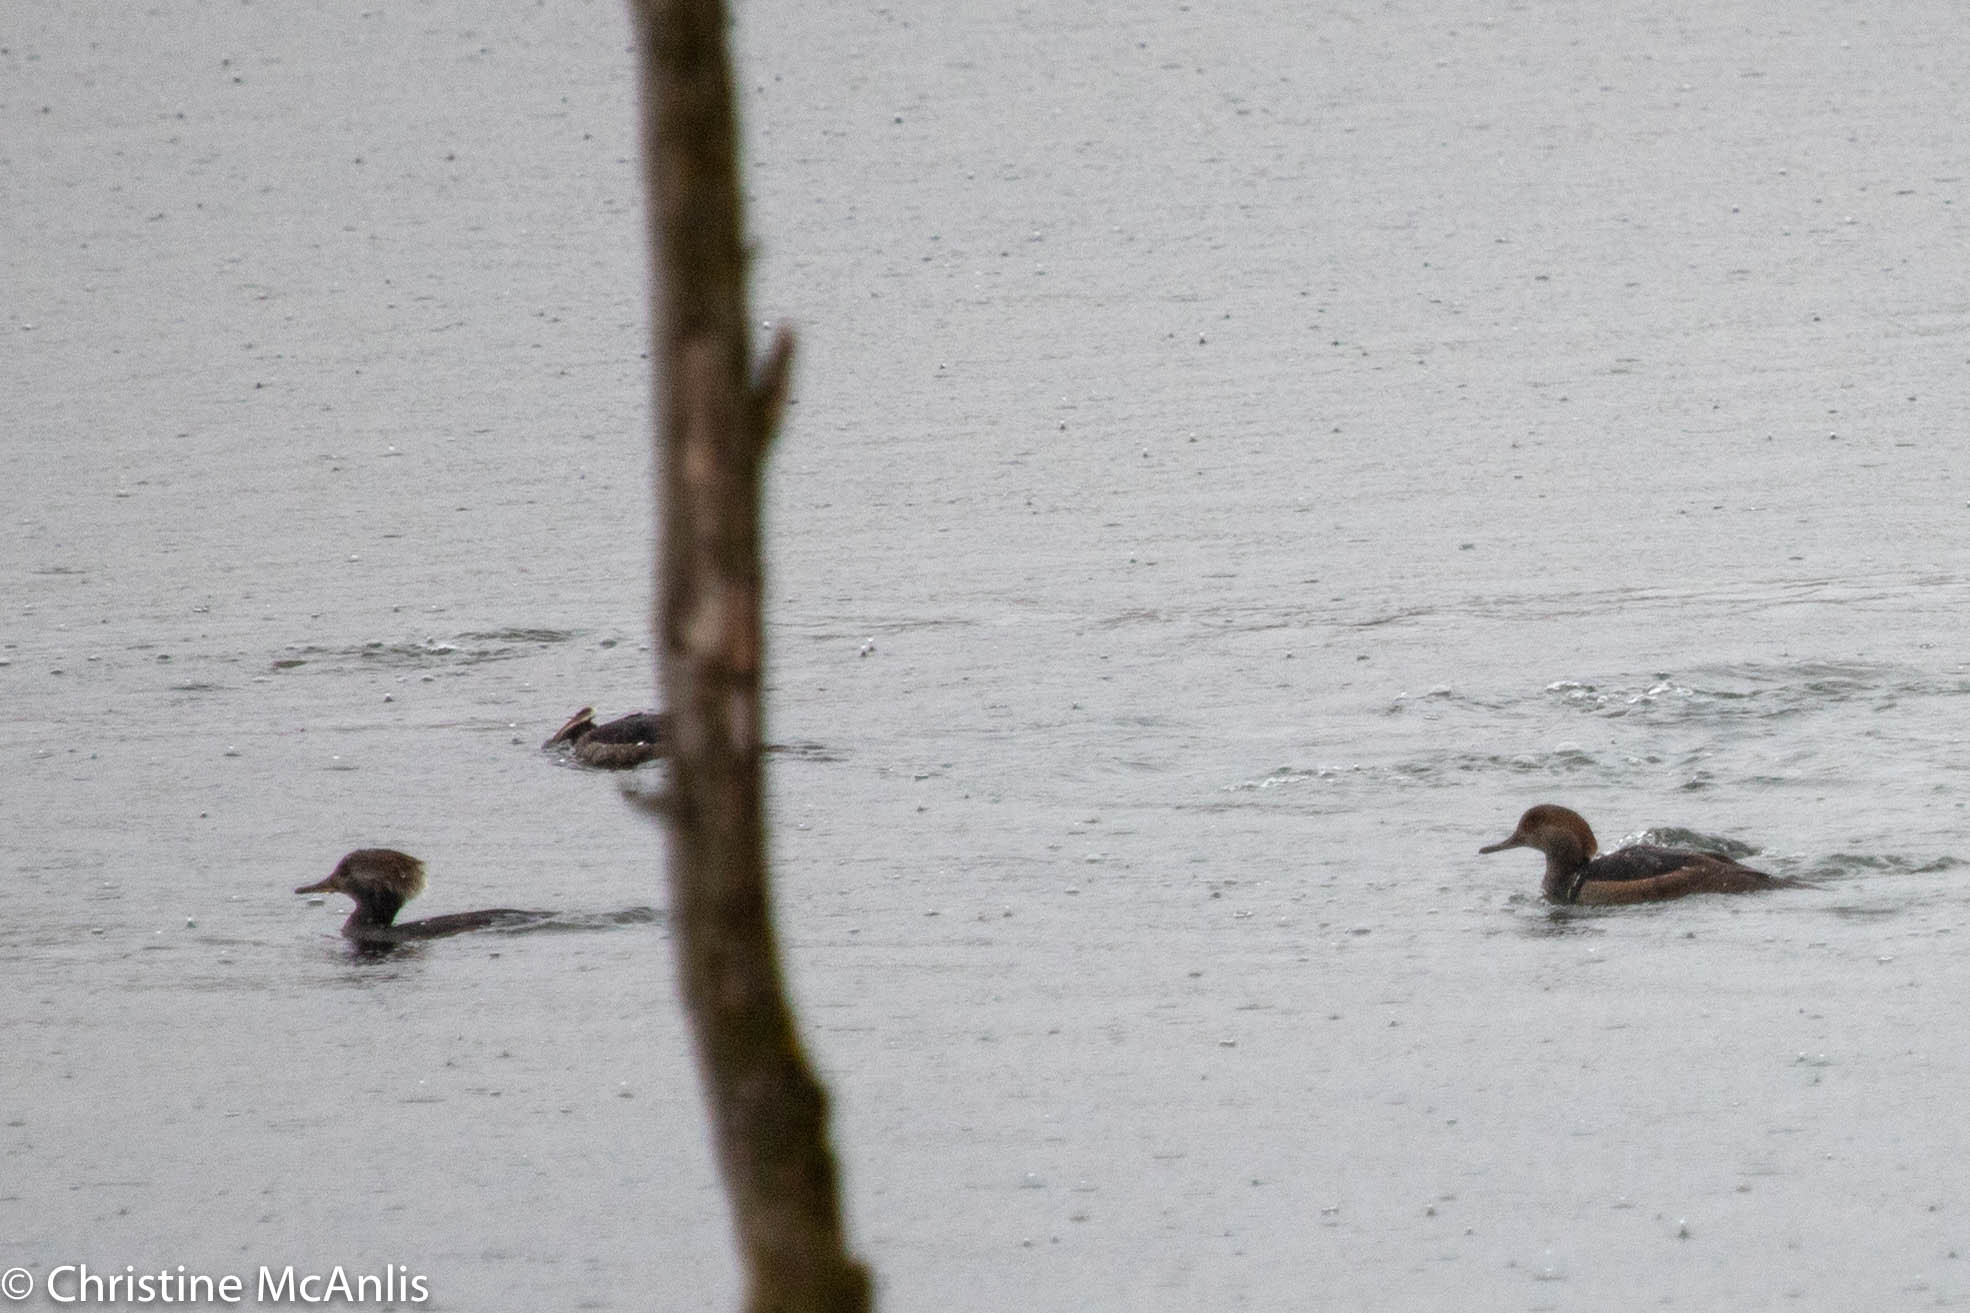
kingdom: Animalia
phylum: Chordata
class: Aves
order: Anseriformes
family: Anatidae
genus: Lophodytes
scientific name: Lophodytes cucullatus
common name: Hooded merganser
